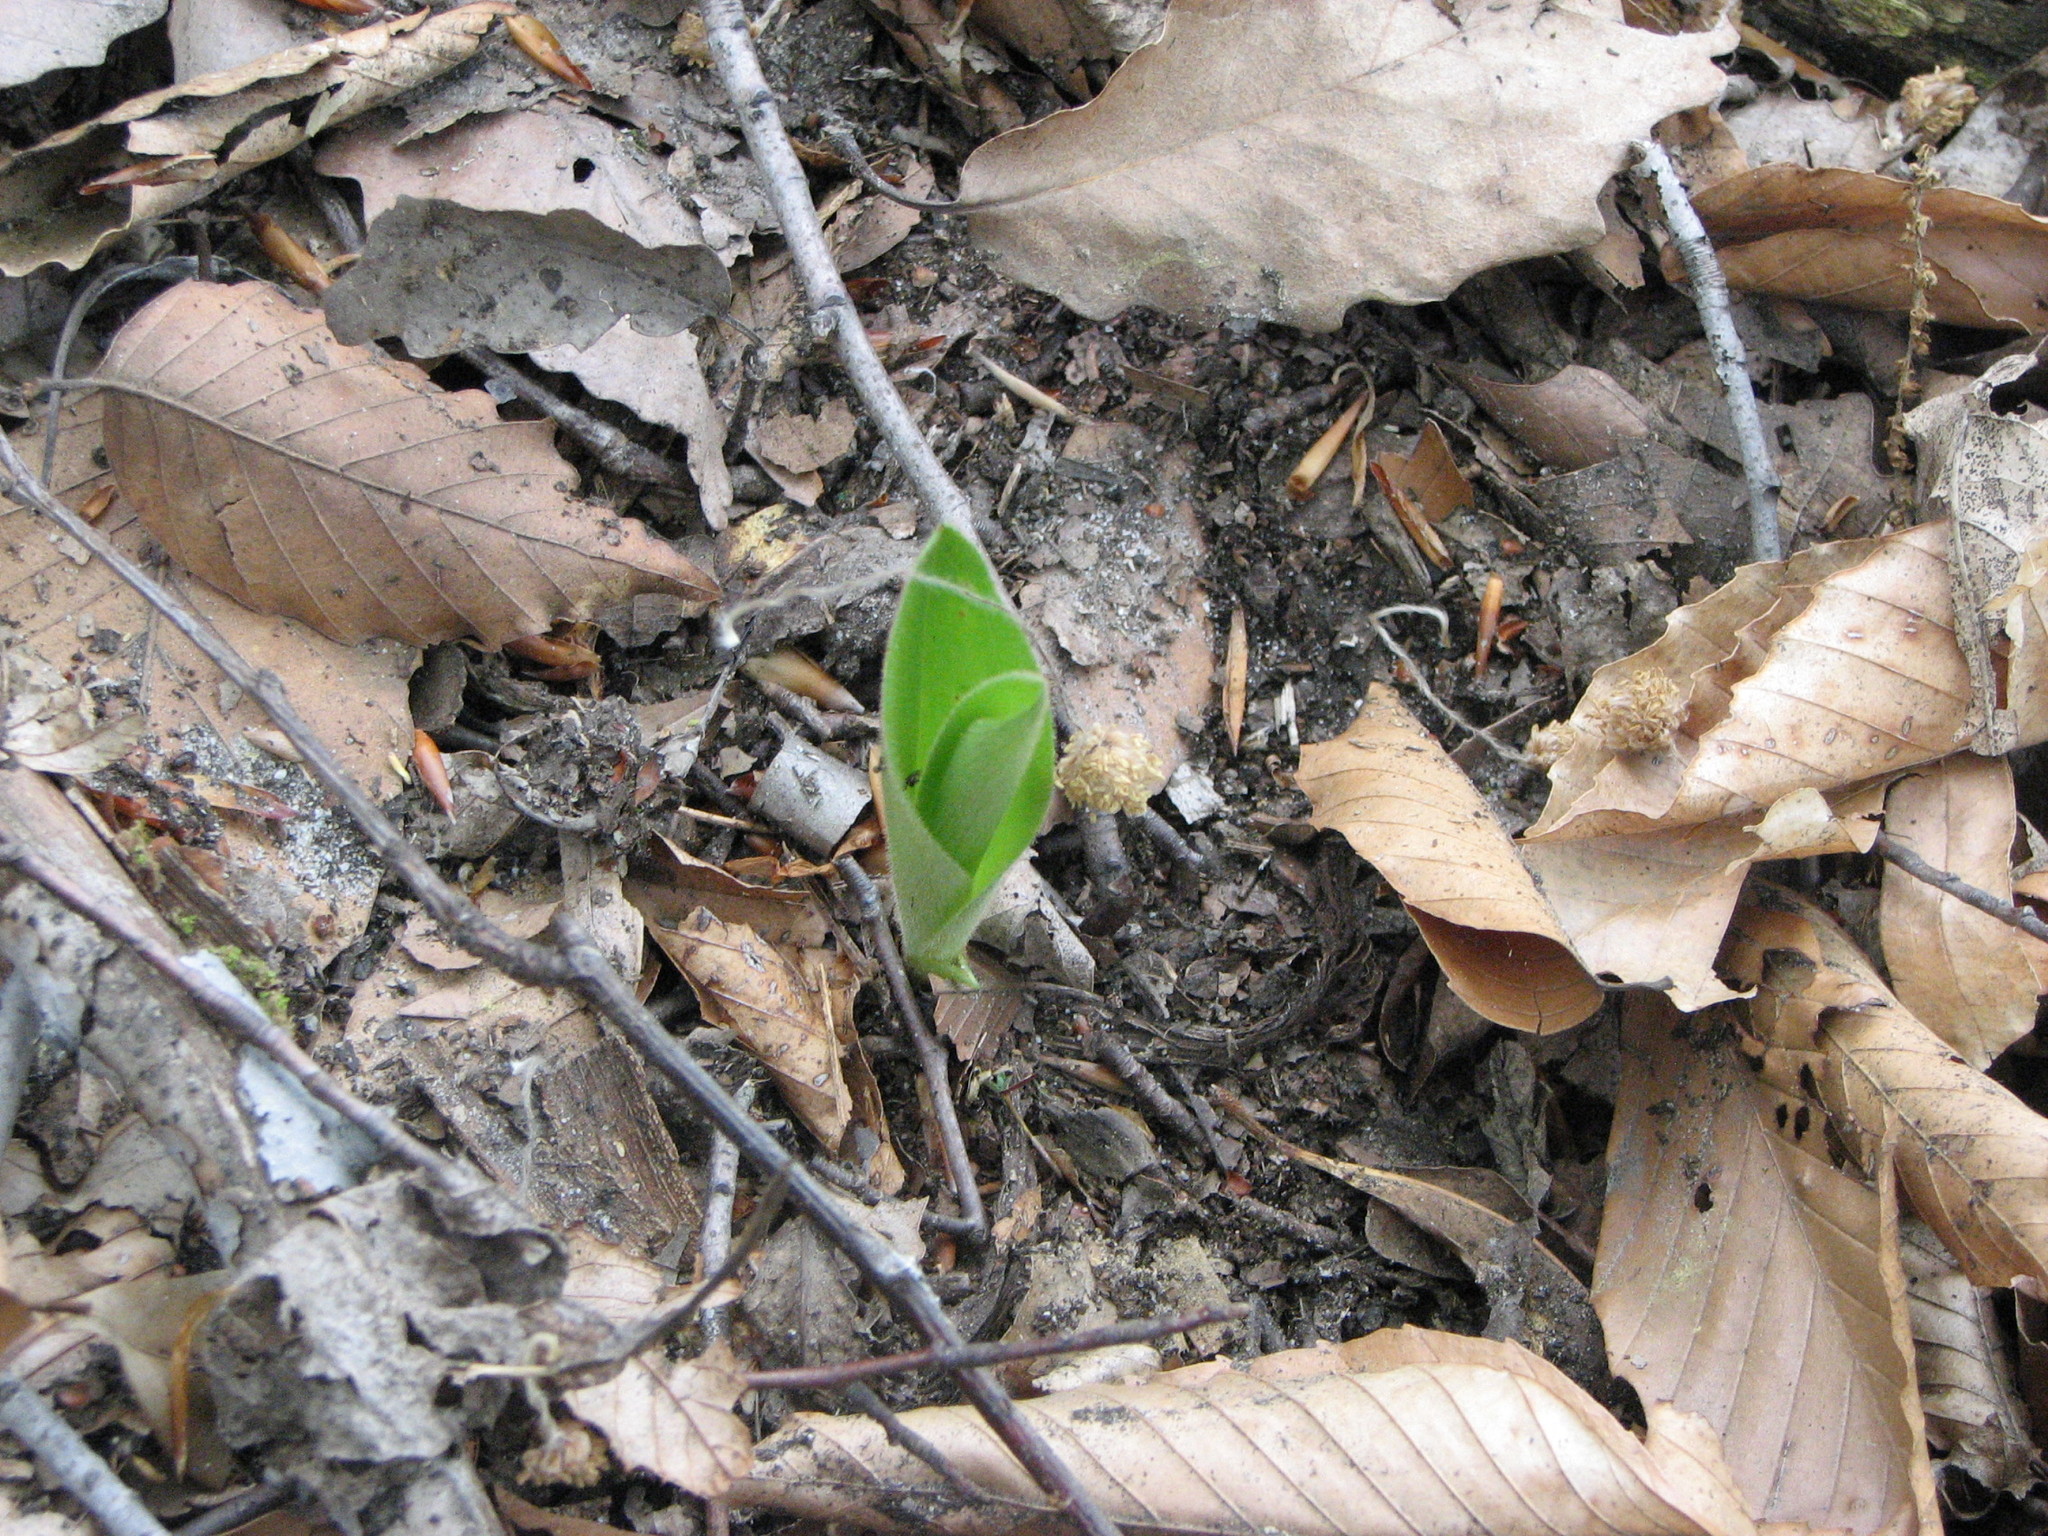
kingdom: Plantae
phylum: Tracheophyta
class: Liliopsida
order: Asparagales
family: Orchidaceae
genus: Cypripedium
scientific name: Cypripedium acaule
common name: Pink lady's-slipper
